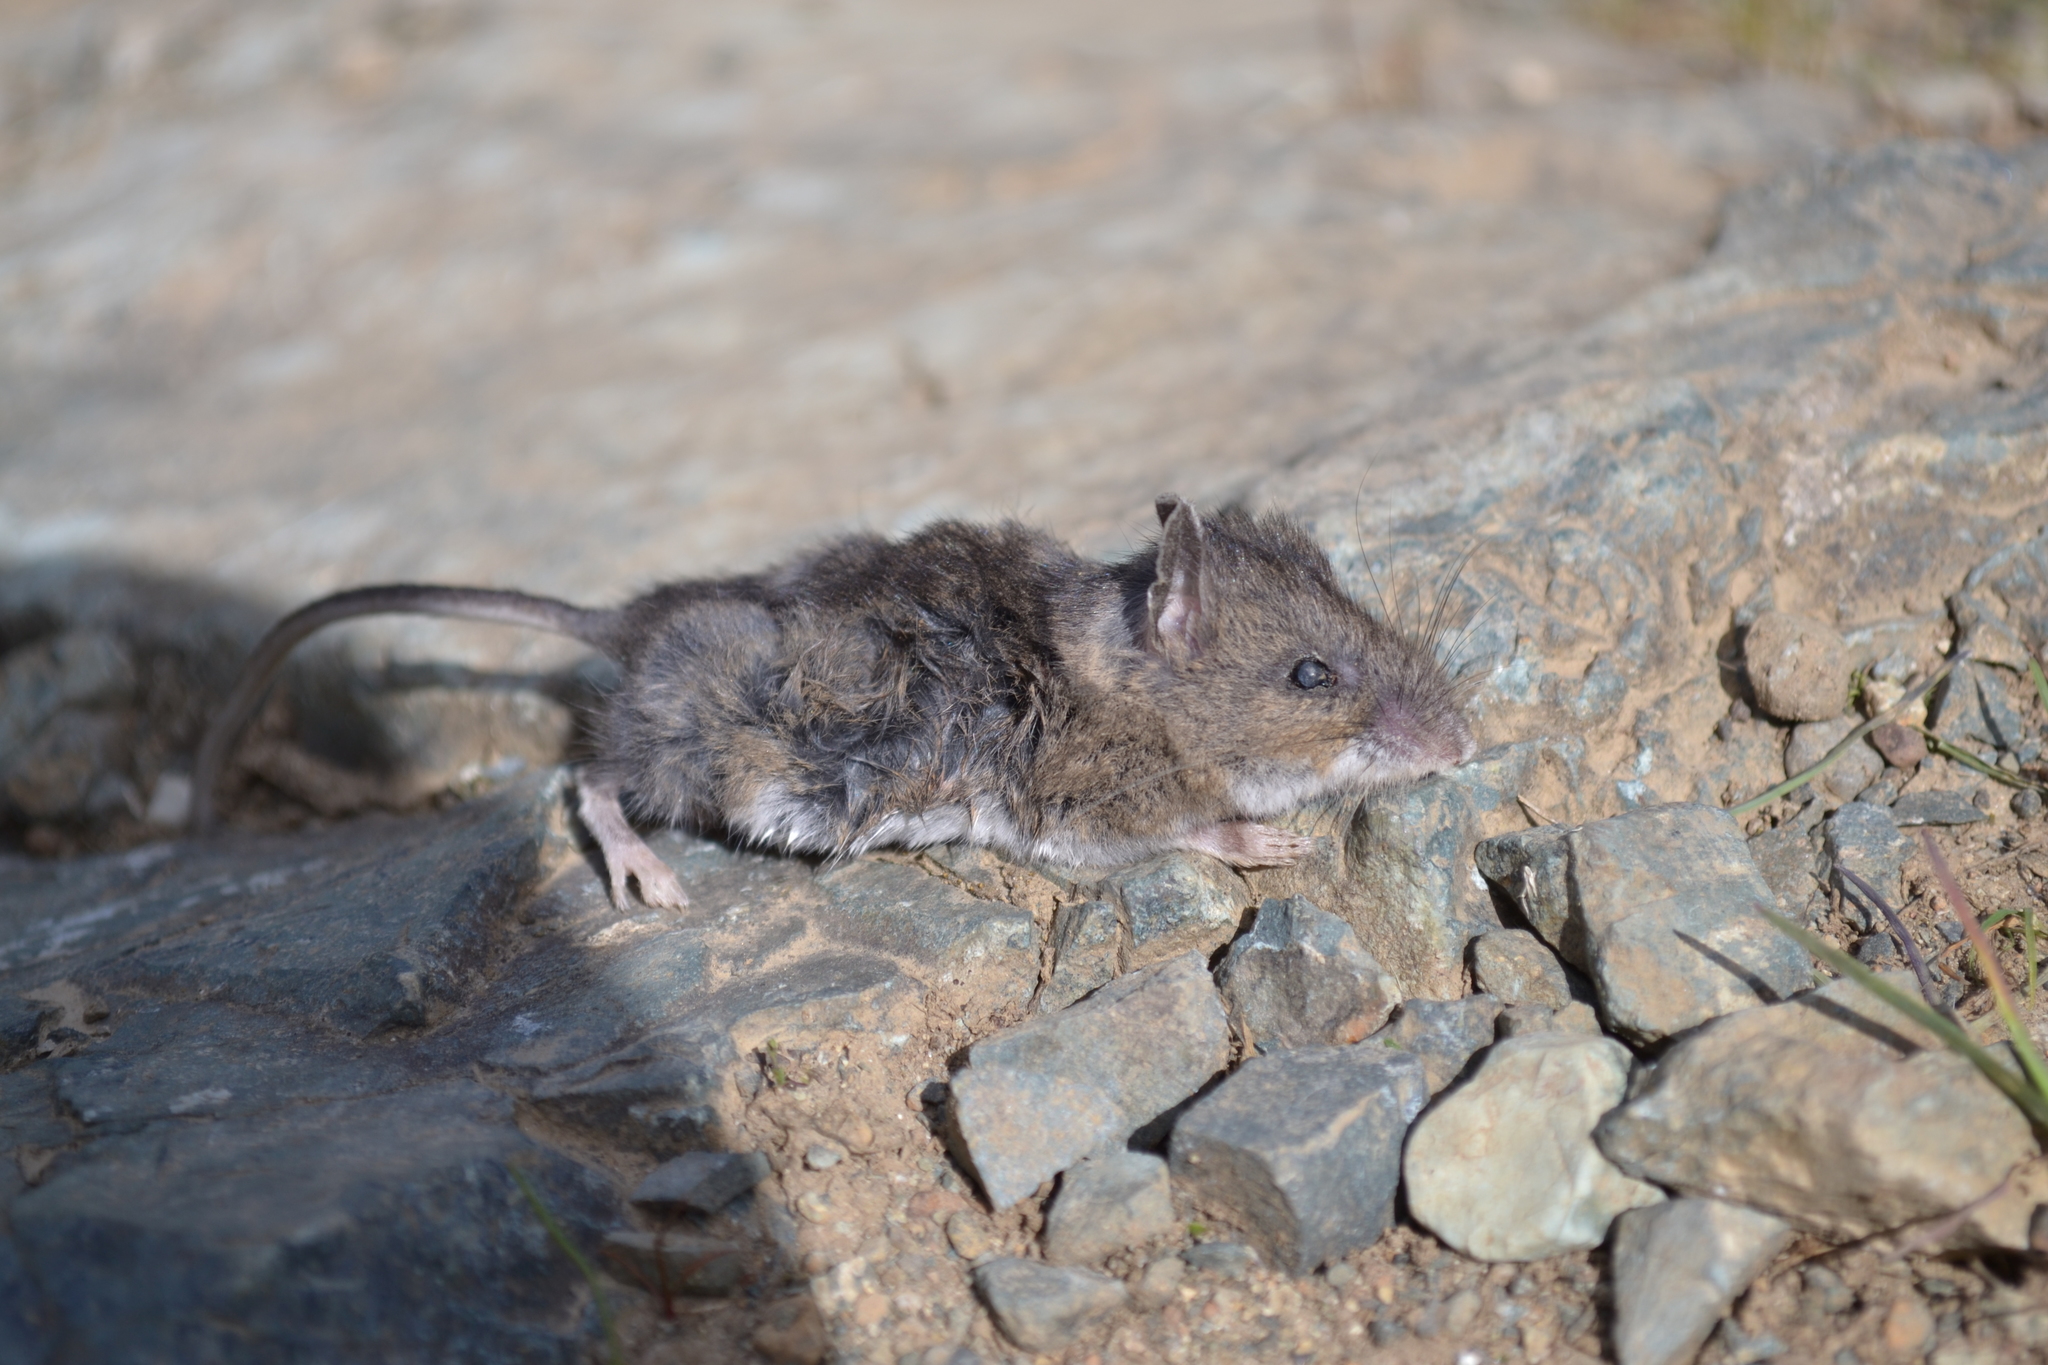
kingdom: Animalia
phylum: Chordata
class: Mammalia
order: Rodentia
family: Cricetidae
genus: Peromyscus
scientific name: Peromyscus maniculatus
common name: Deer mouse
